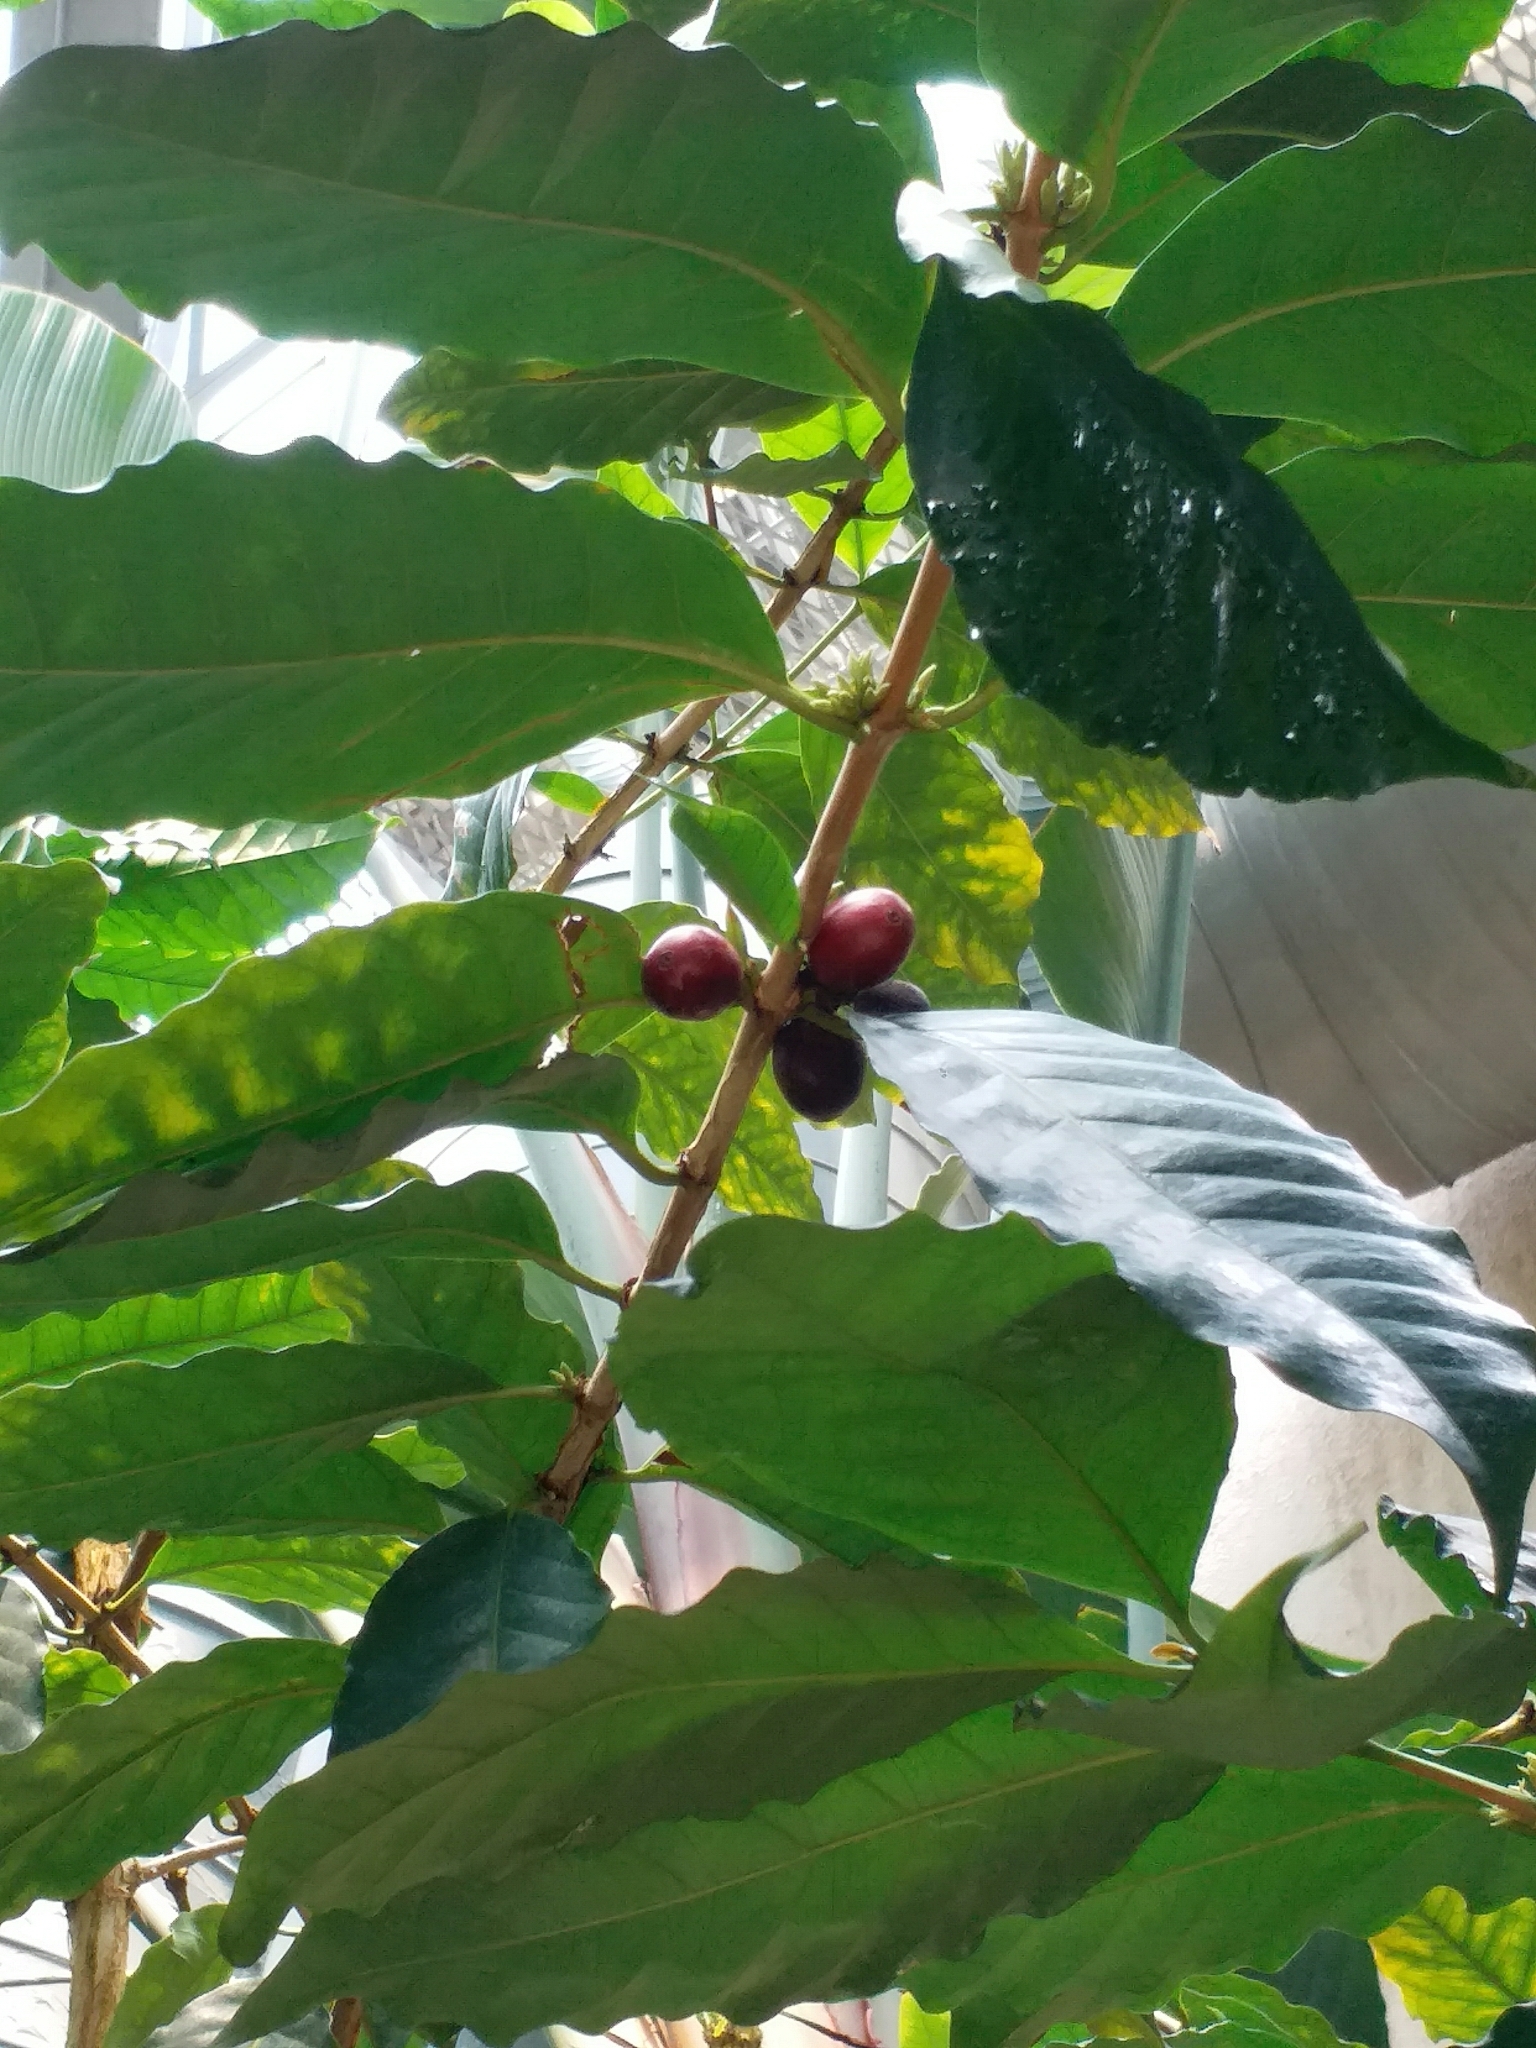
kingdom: Plantae
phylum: Tracheophyta
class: Magnoliopsida
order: Gentianales
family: Rubiaceae
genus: Coffea
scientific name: Coffea arabica
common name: Coffee
